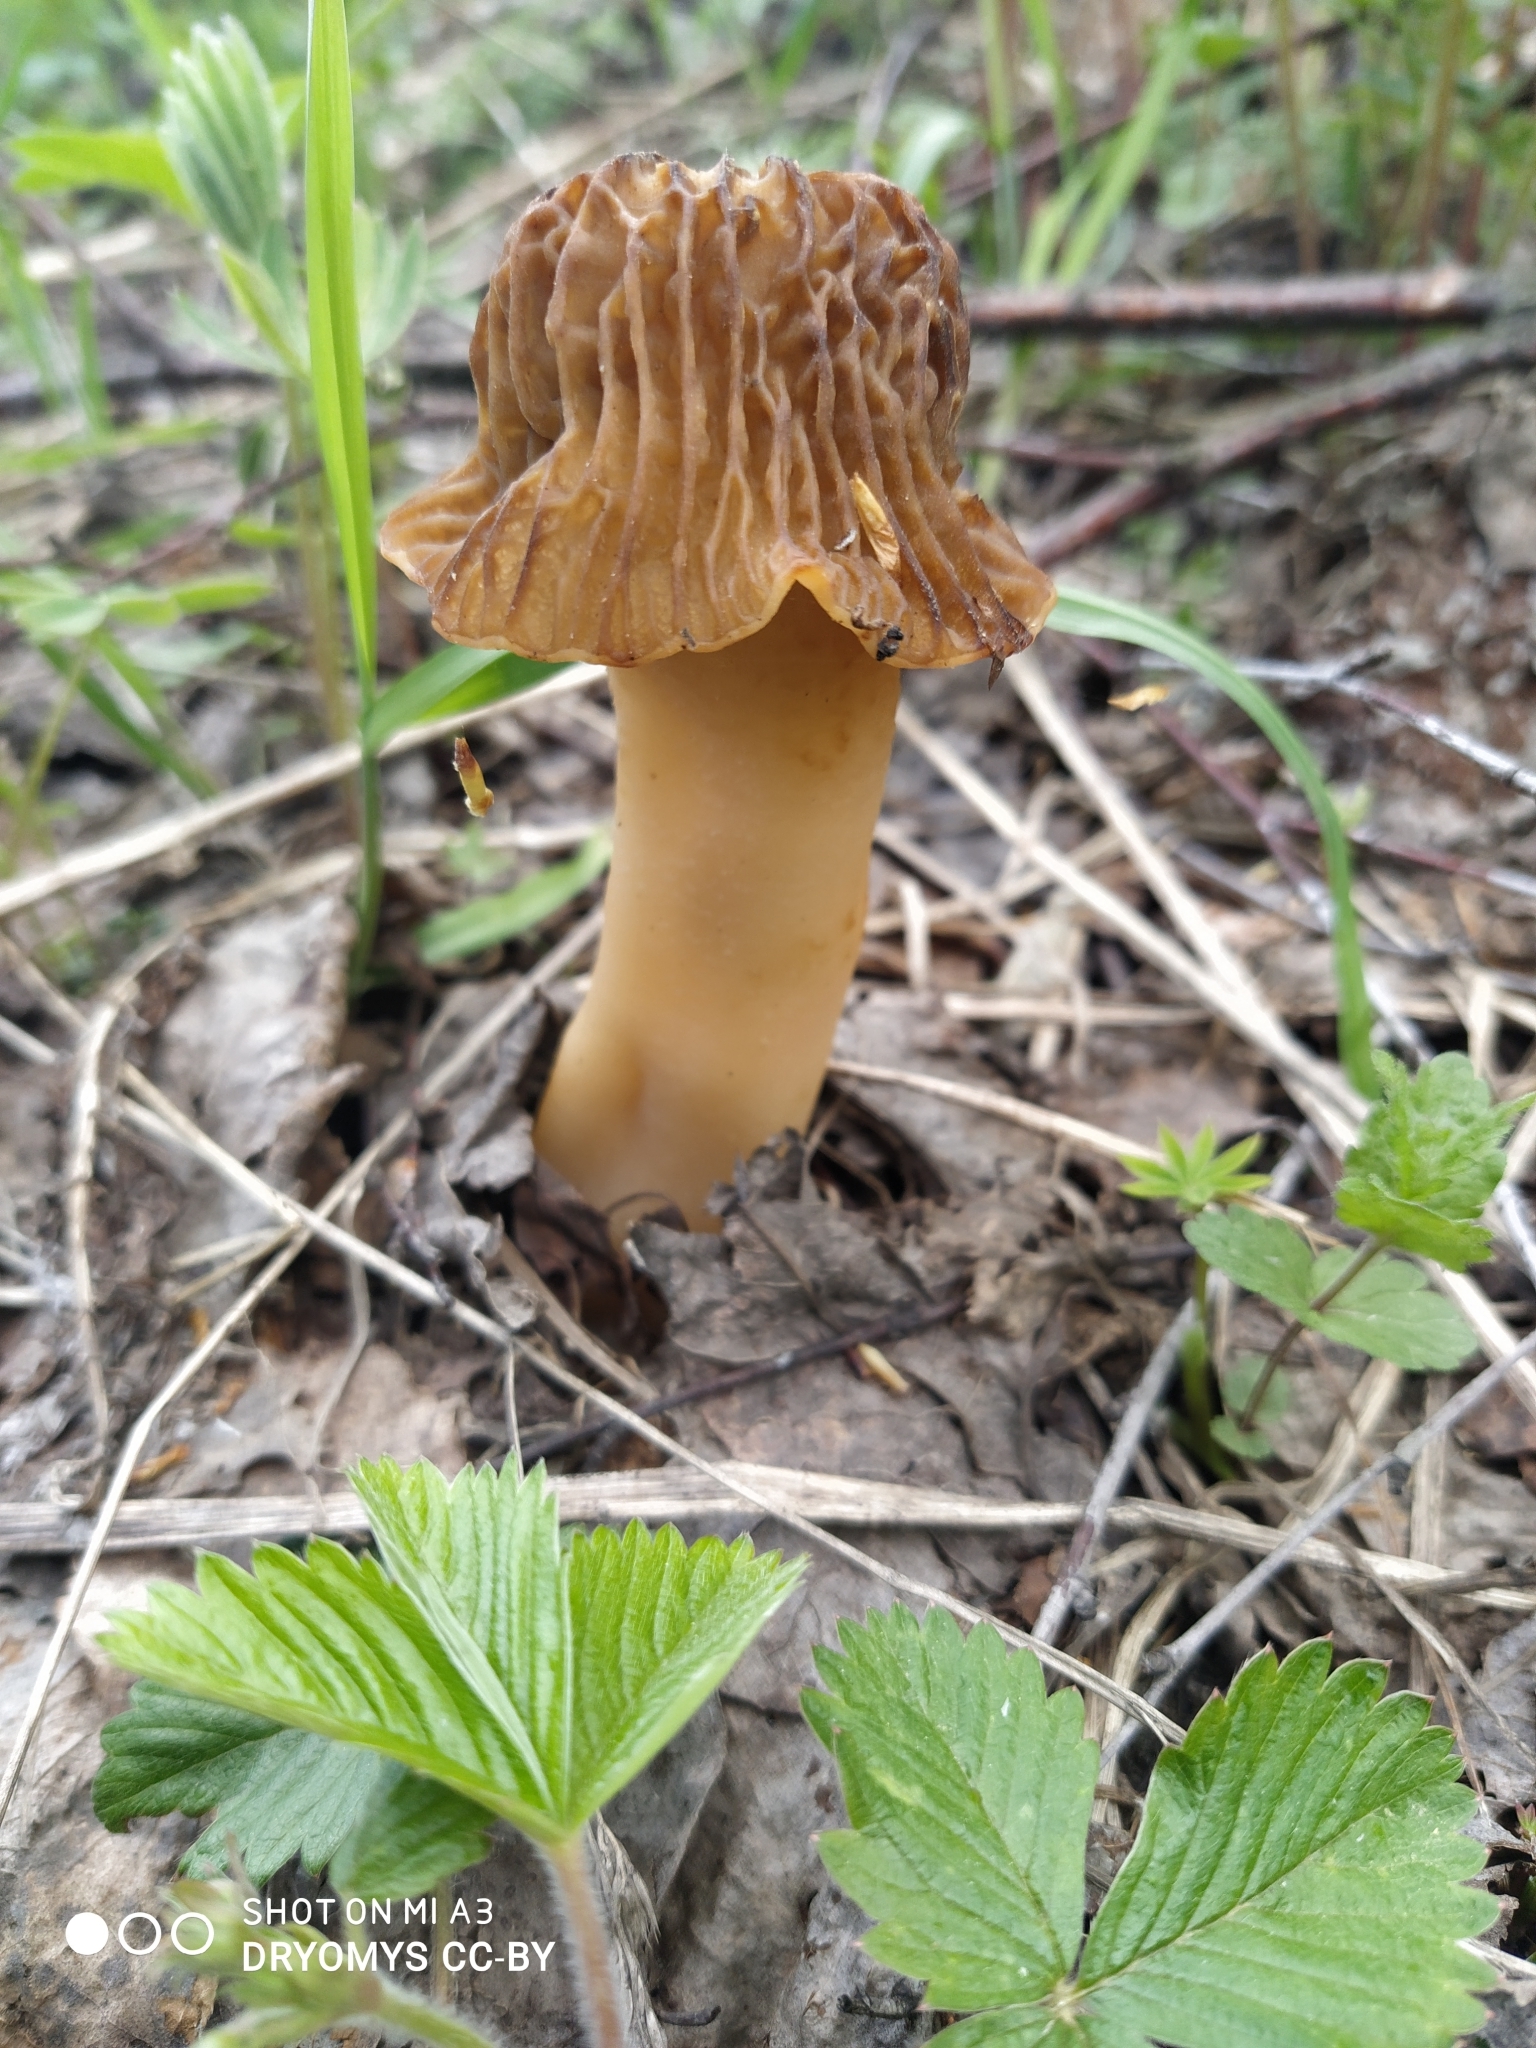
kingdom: Fungi
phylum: Ascomycota
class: Pezizomycetes
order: Pezizales
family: Morchellaceae
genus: Verpa
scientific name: Verpa bohemica
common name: Wrinkled thimble morel
